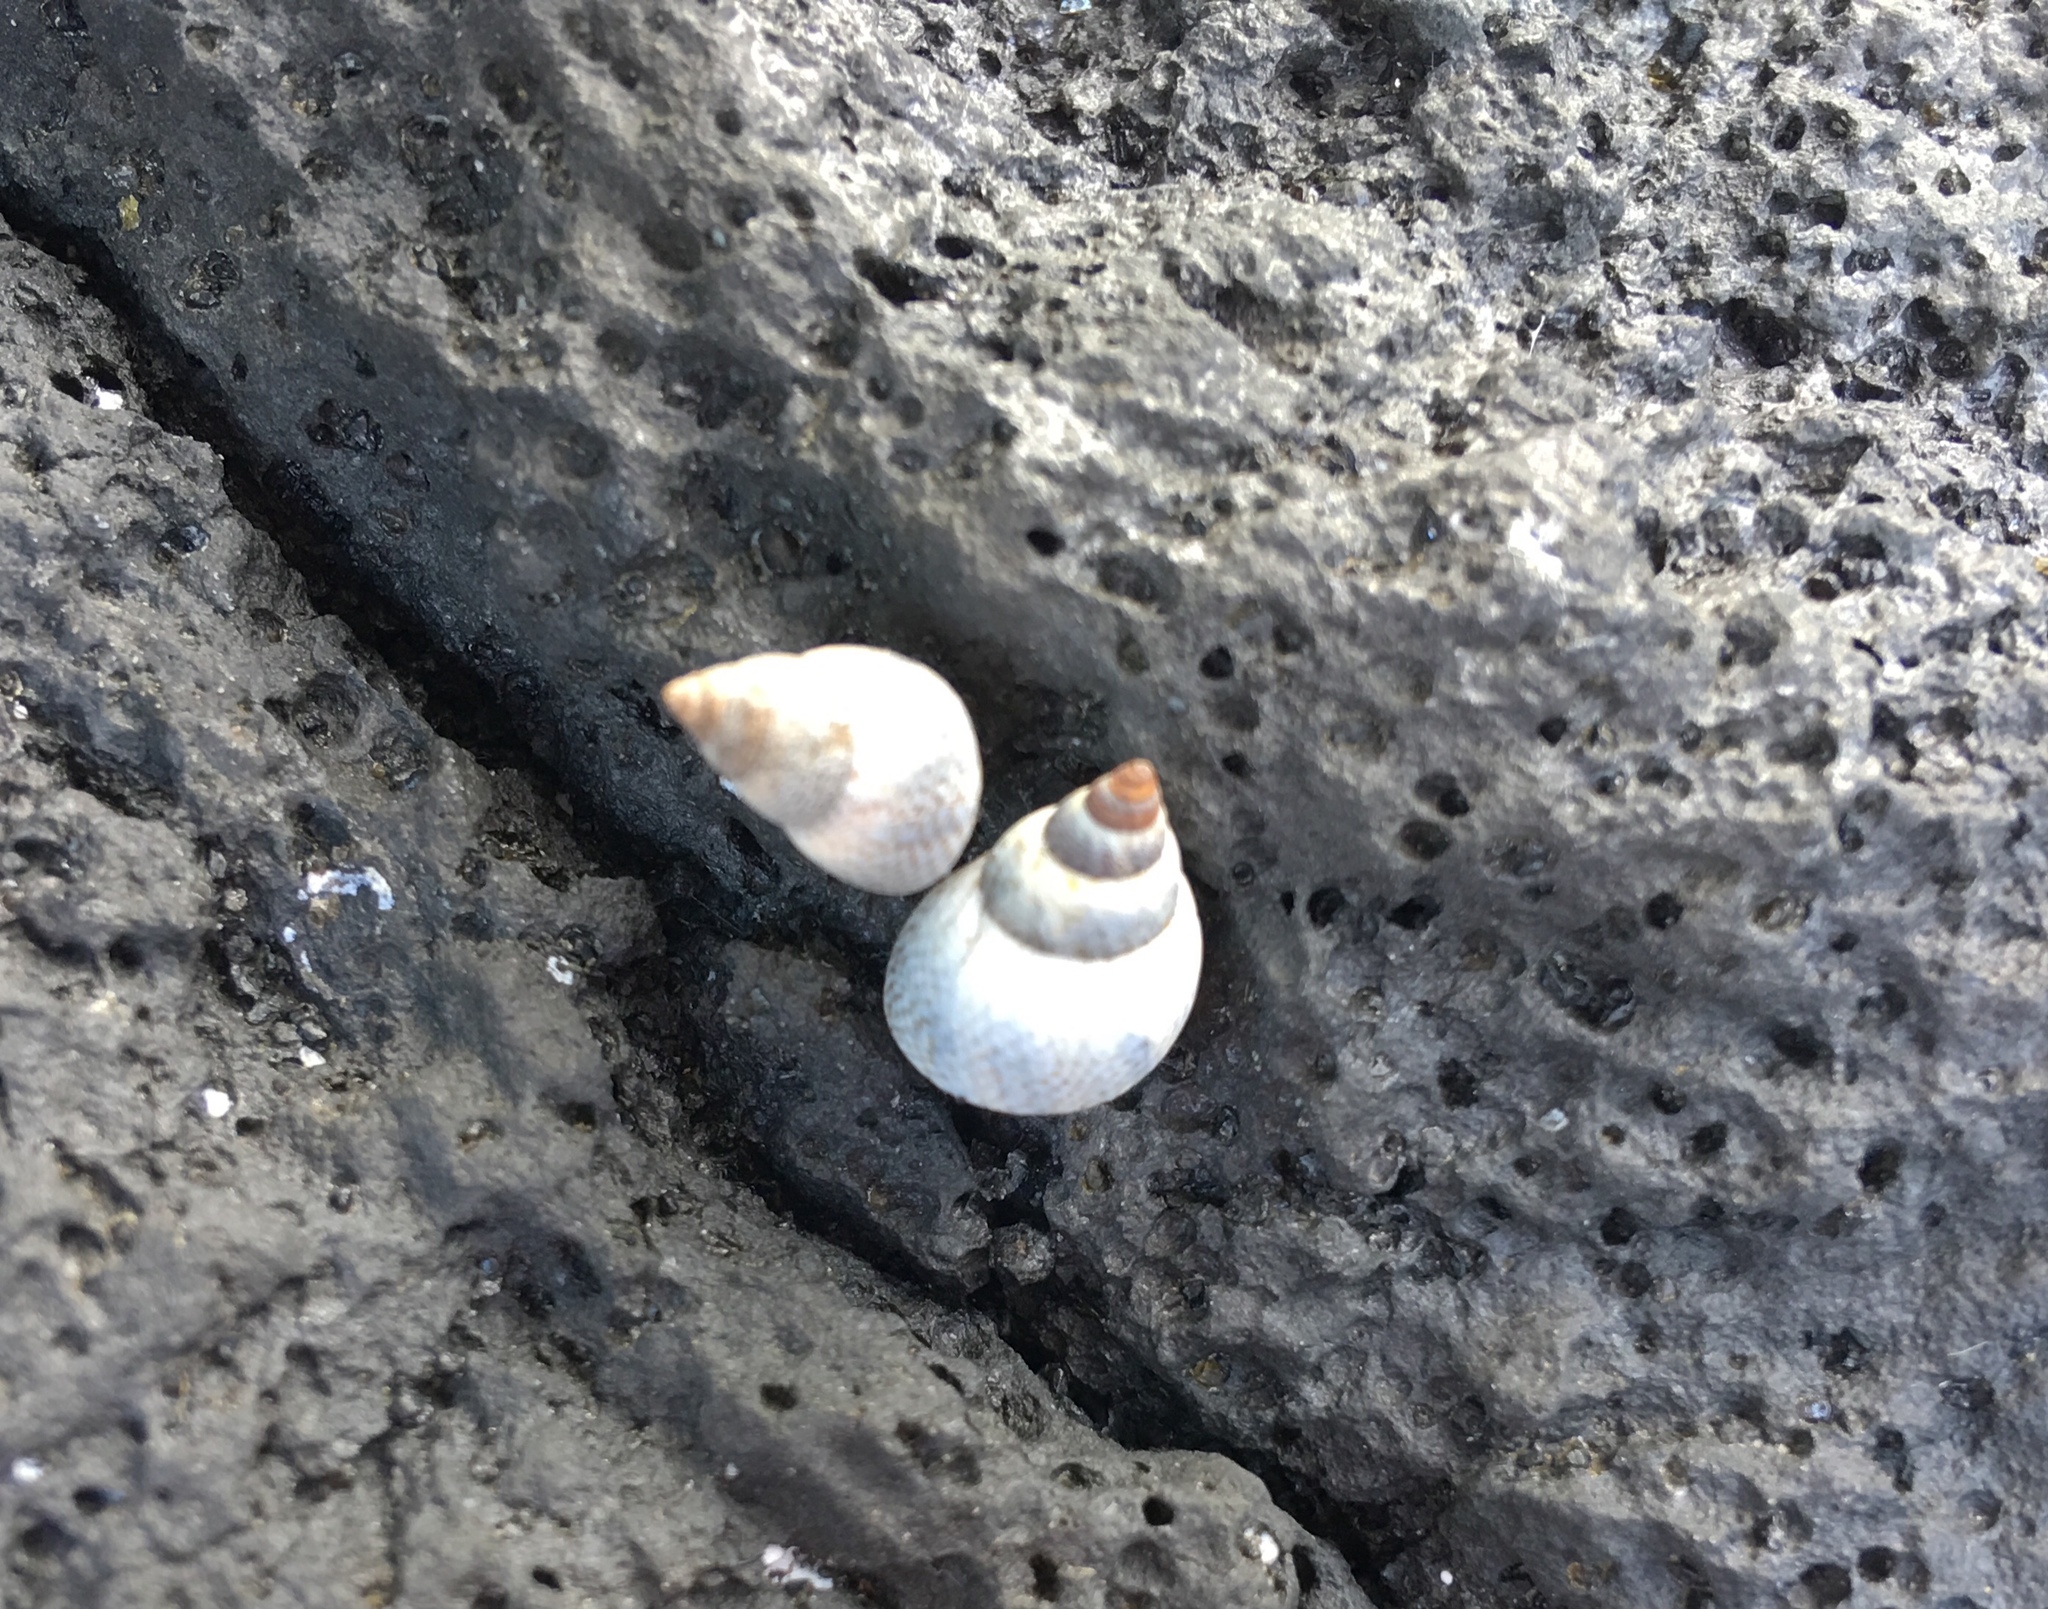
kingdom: Animalia
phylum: Mollusca
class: Gastropoda
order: Littorinimorpha
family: Littorinidae
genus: Littoraria
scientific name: Littoraria pintado
